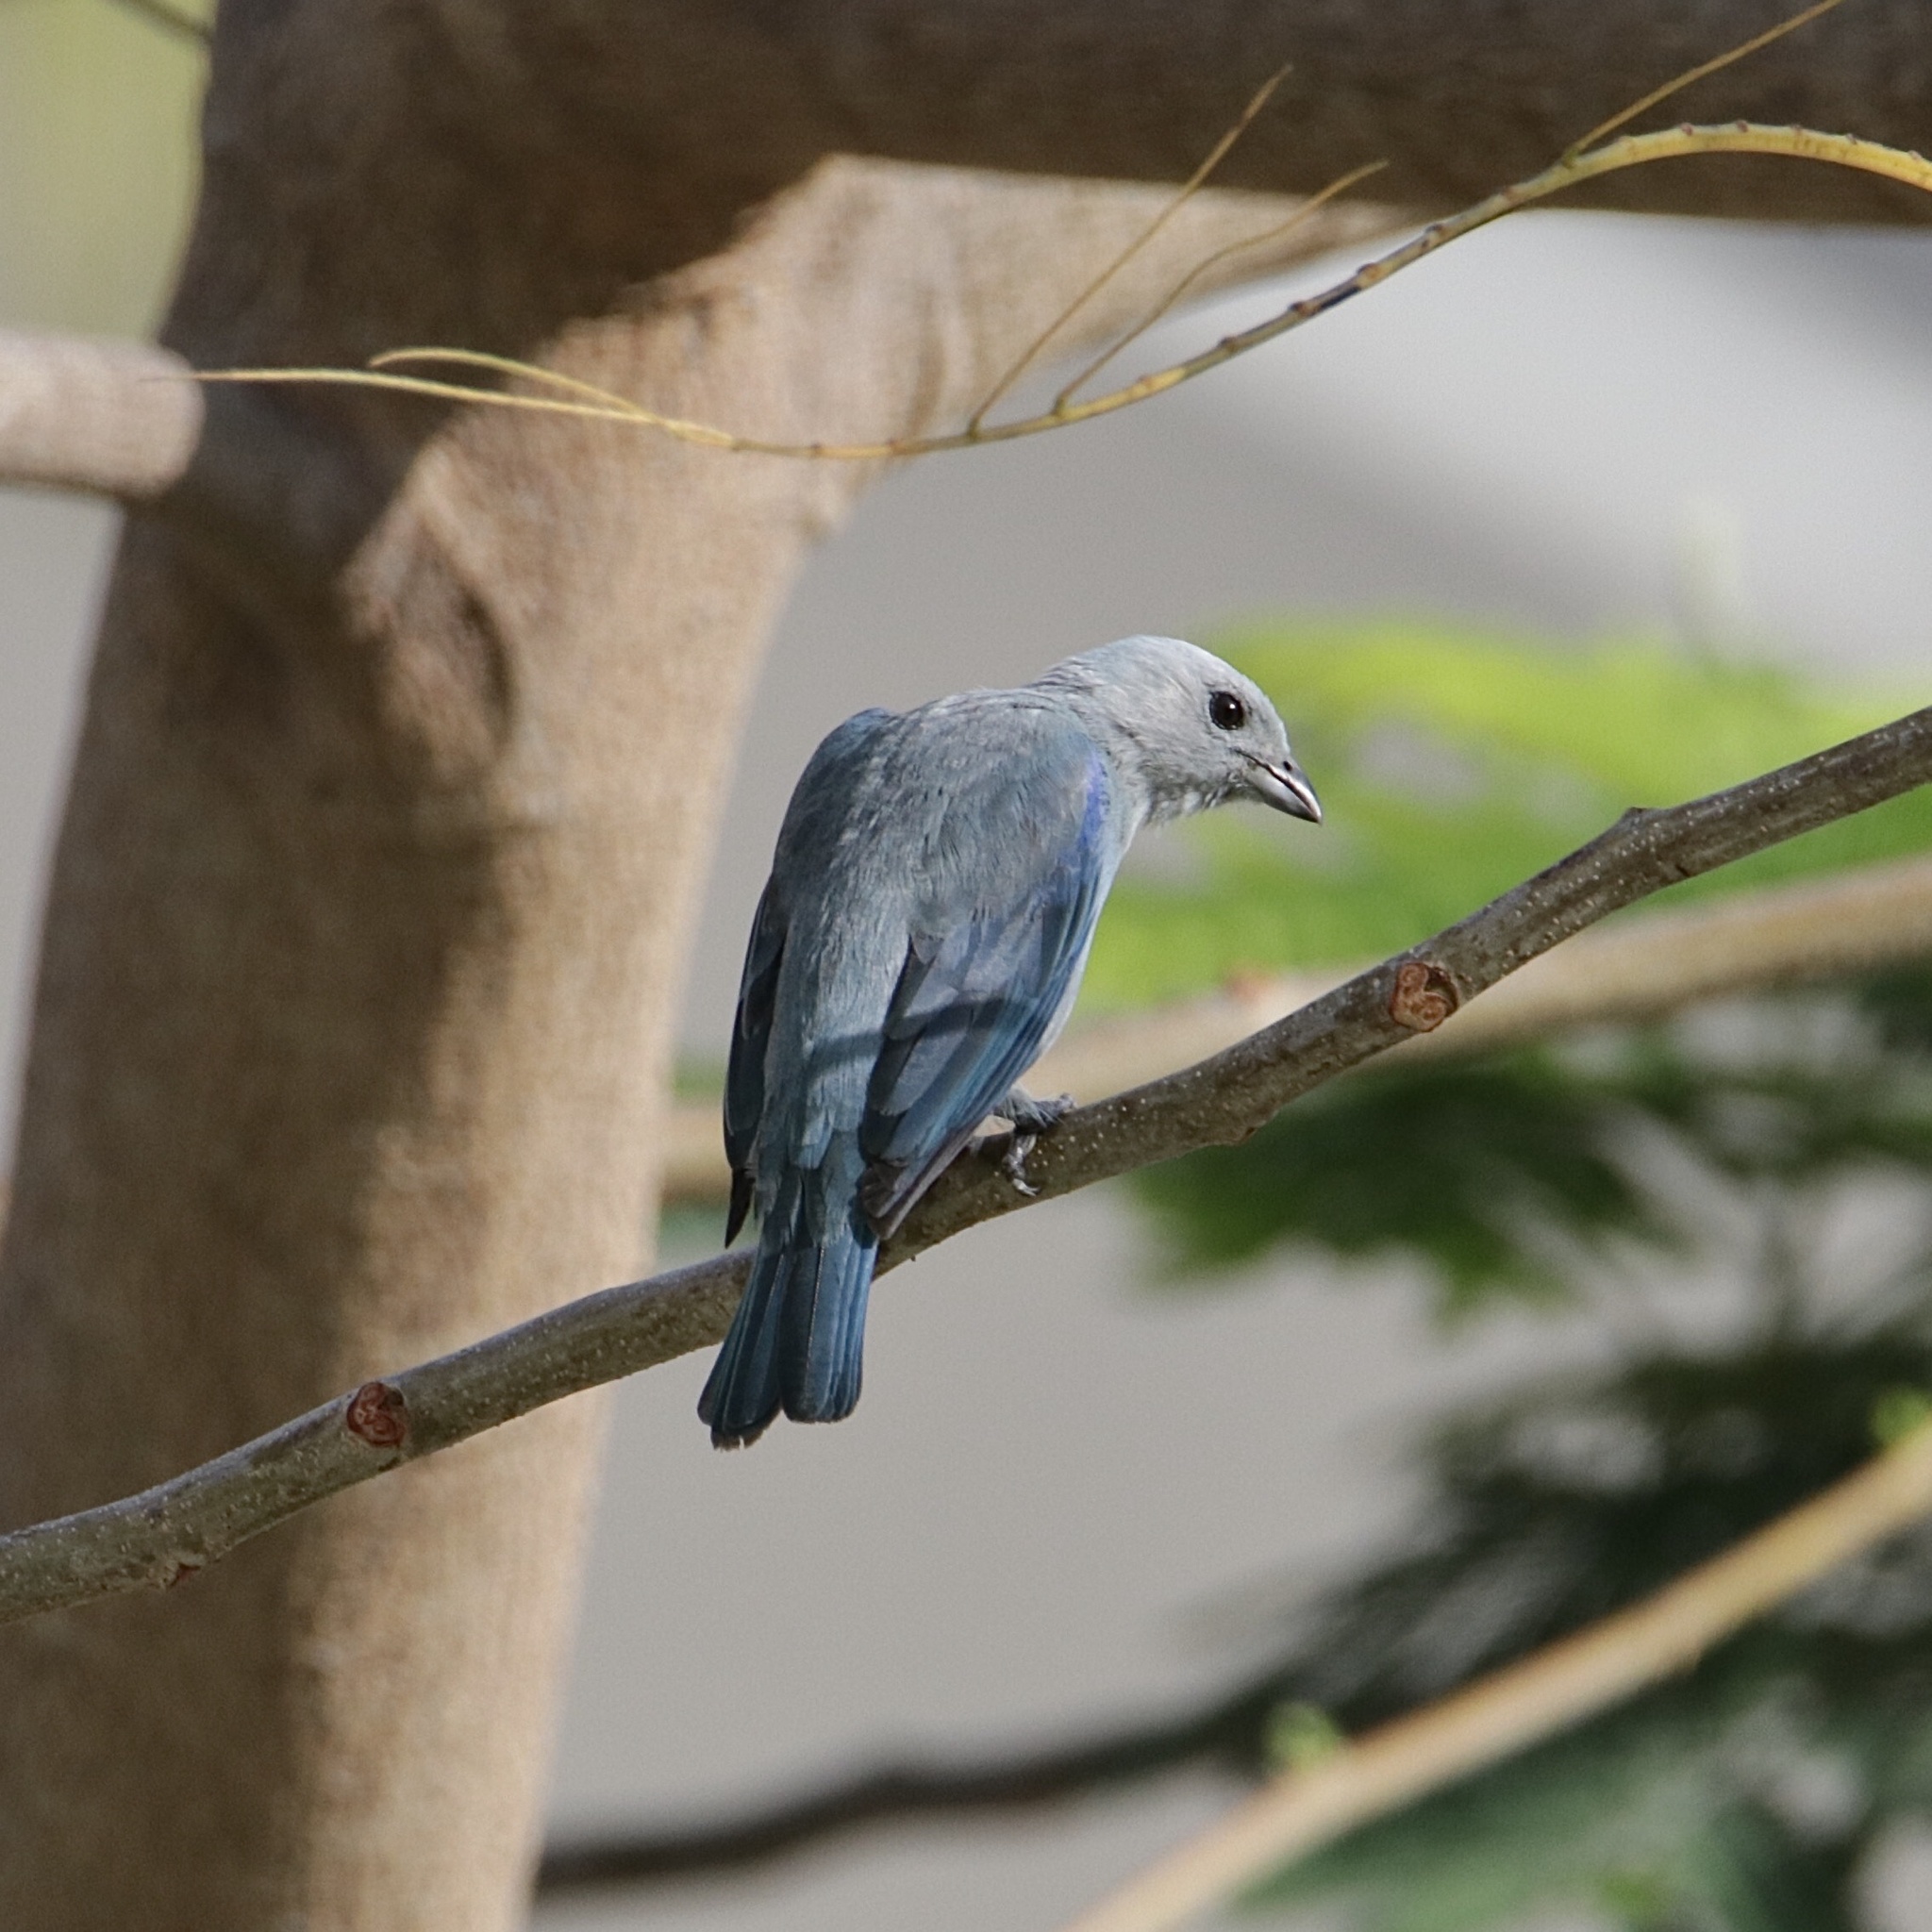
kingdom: Animalia
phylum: Chordata
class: Aves
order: Passeriformes
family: Thraupidae
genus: Thraupis
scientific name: Thraupis episcopus
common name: Blue-grey tanager
